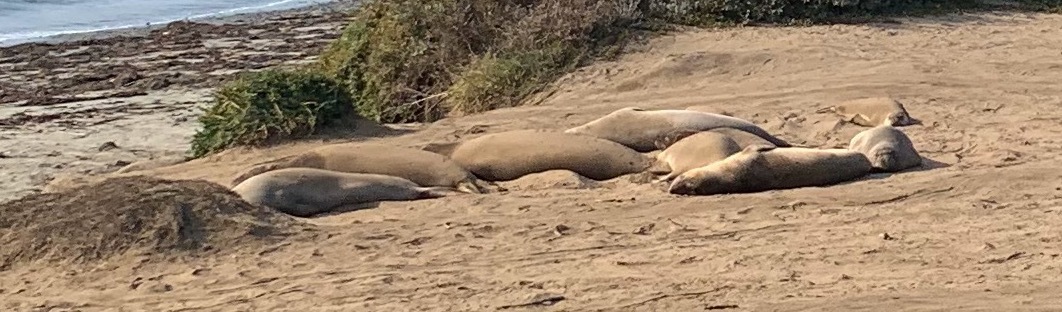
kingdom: Animalia
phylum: Chordata
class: Mammalia
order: Carnivora
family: Phocidae
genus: Mirounga
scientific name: Mirounga angustirostris
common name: Northern elephant seal
